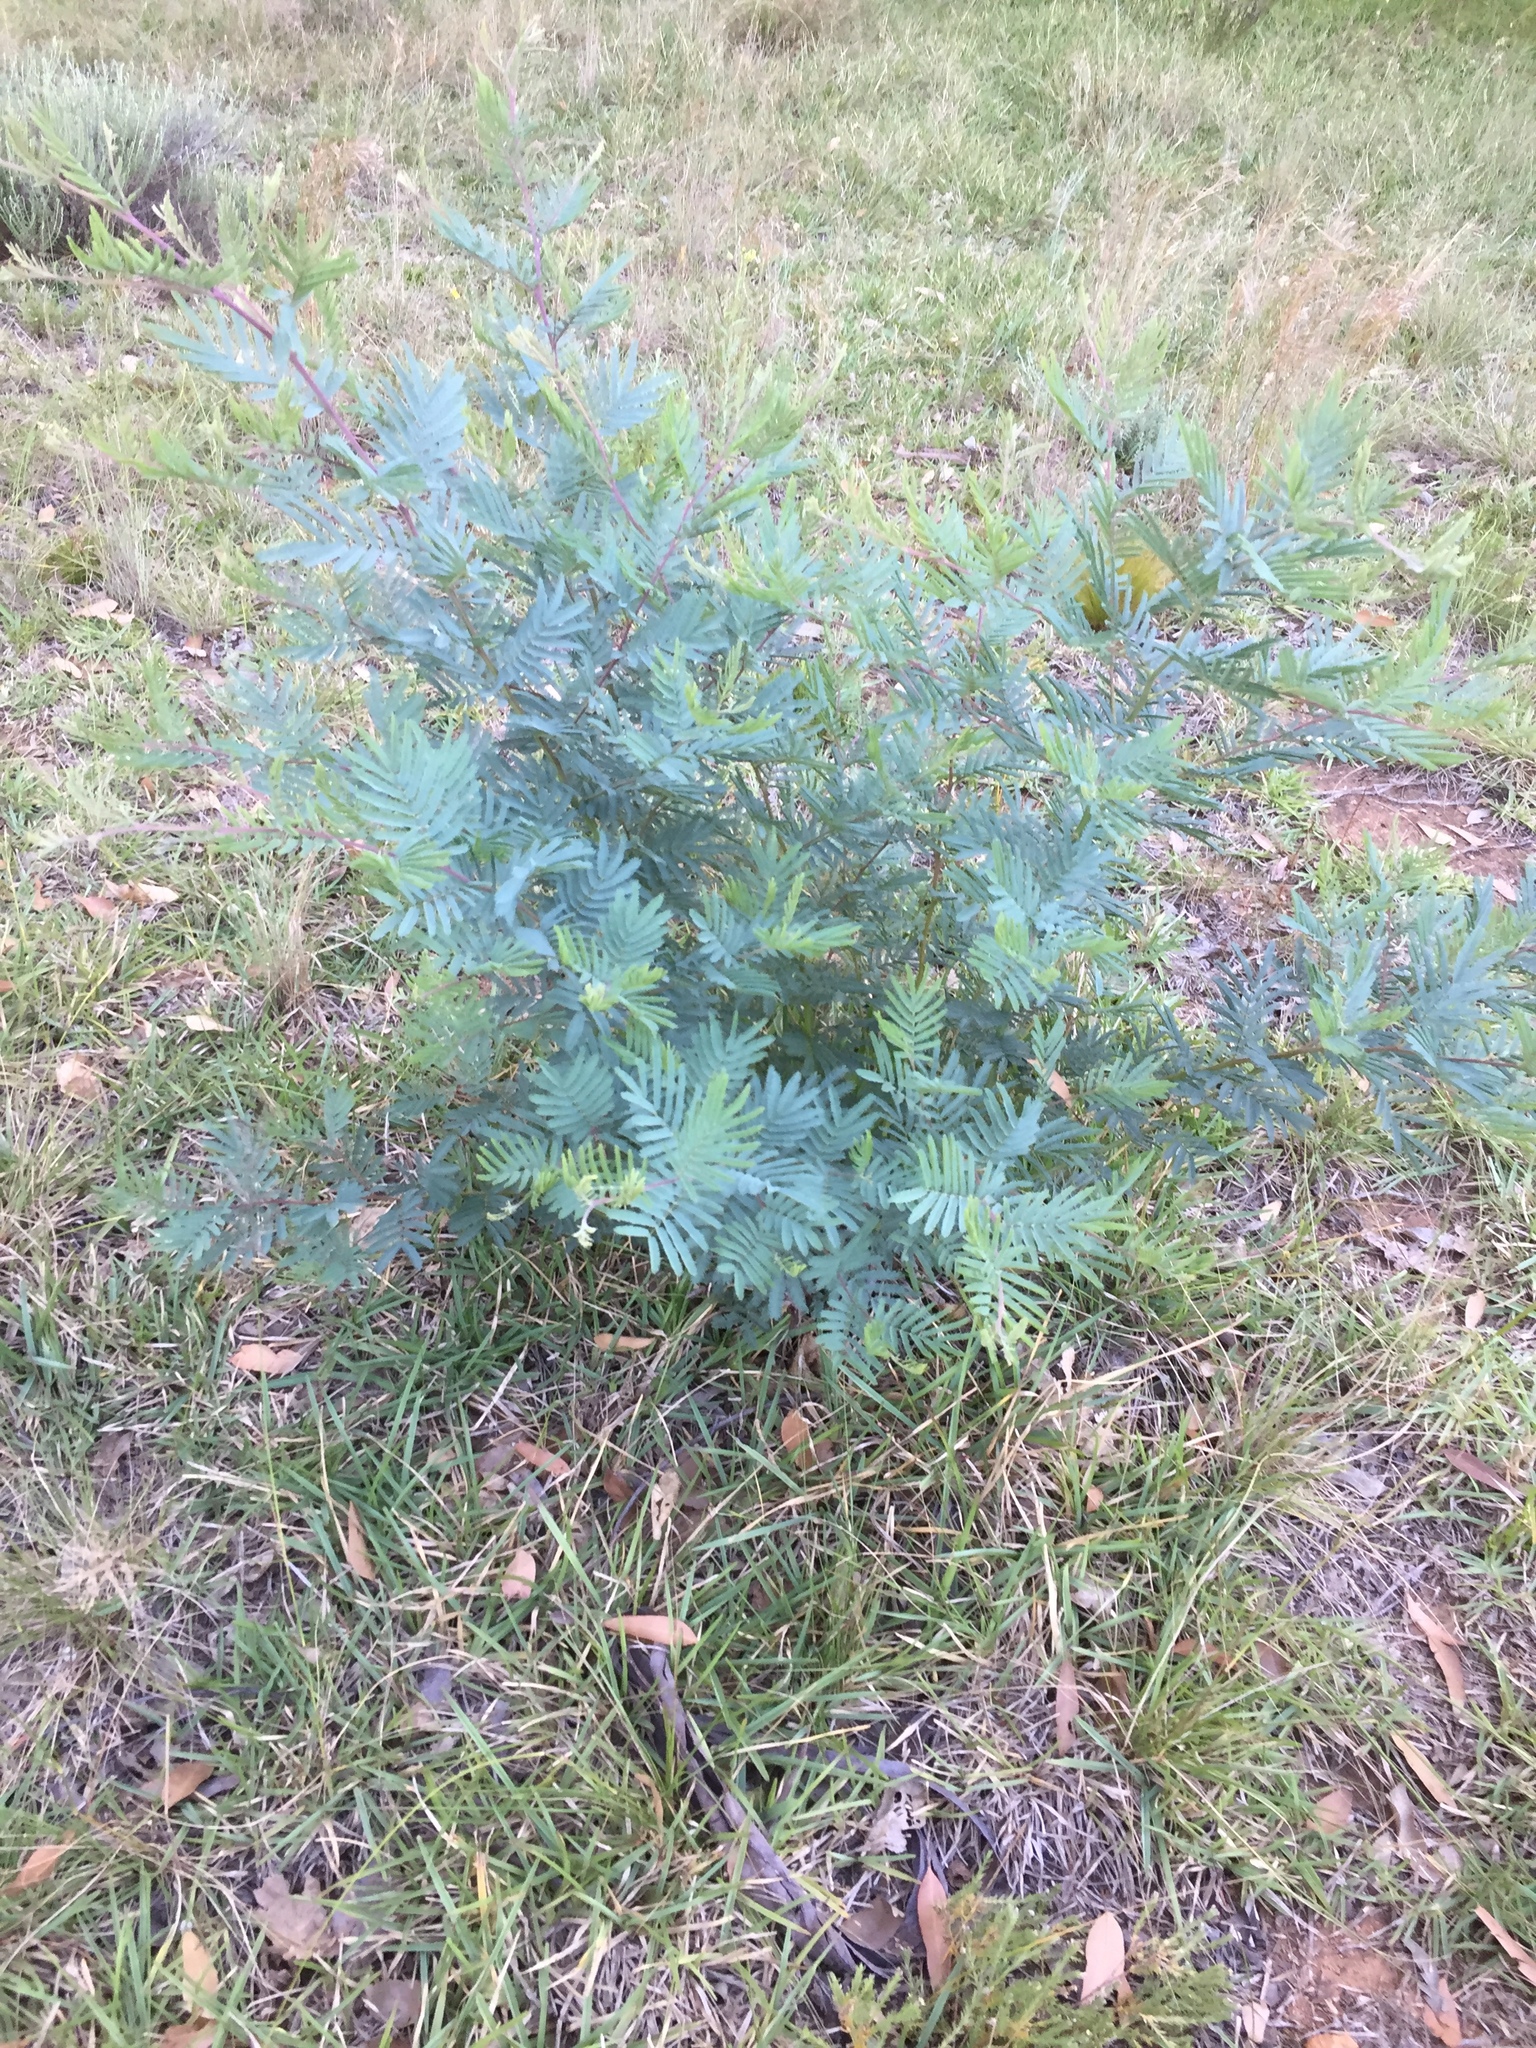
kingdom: Plantae
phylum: Tracheophyta
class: Magnoliopsida
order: Fabales
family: Fabaceae
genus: Acacia
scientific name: Acacia mearnsii
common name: Black wattle
